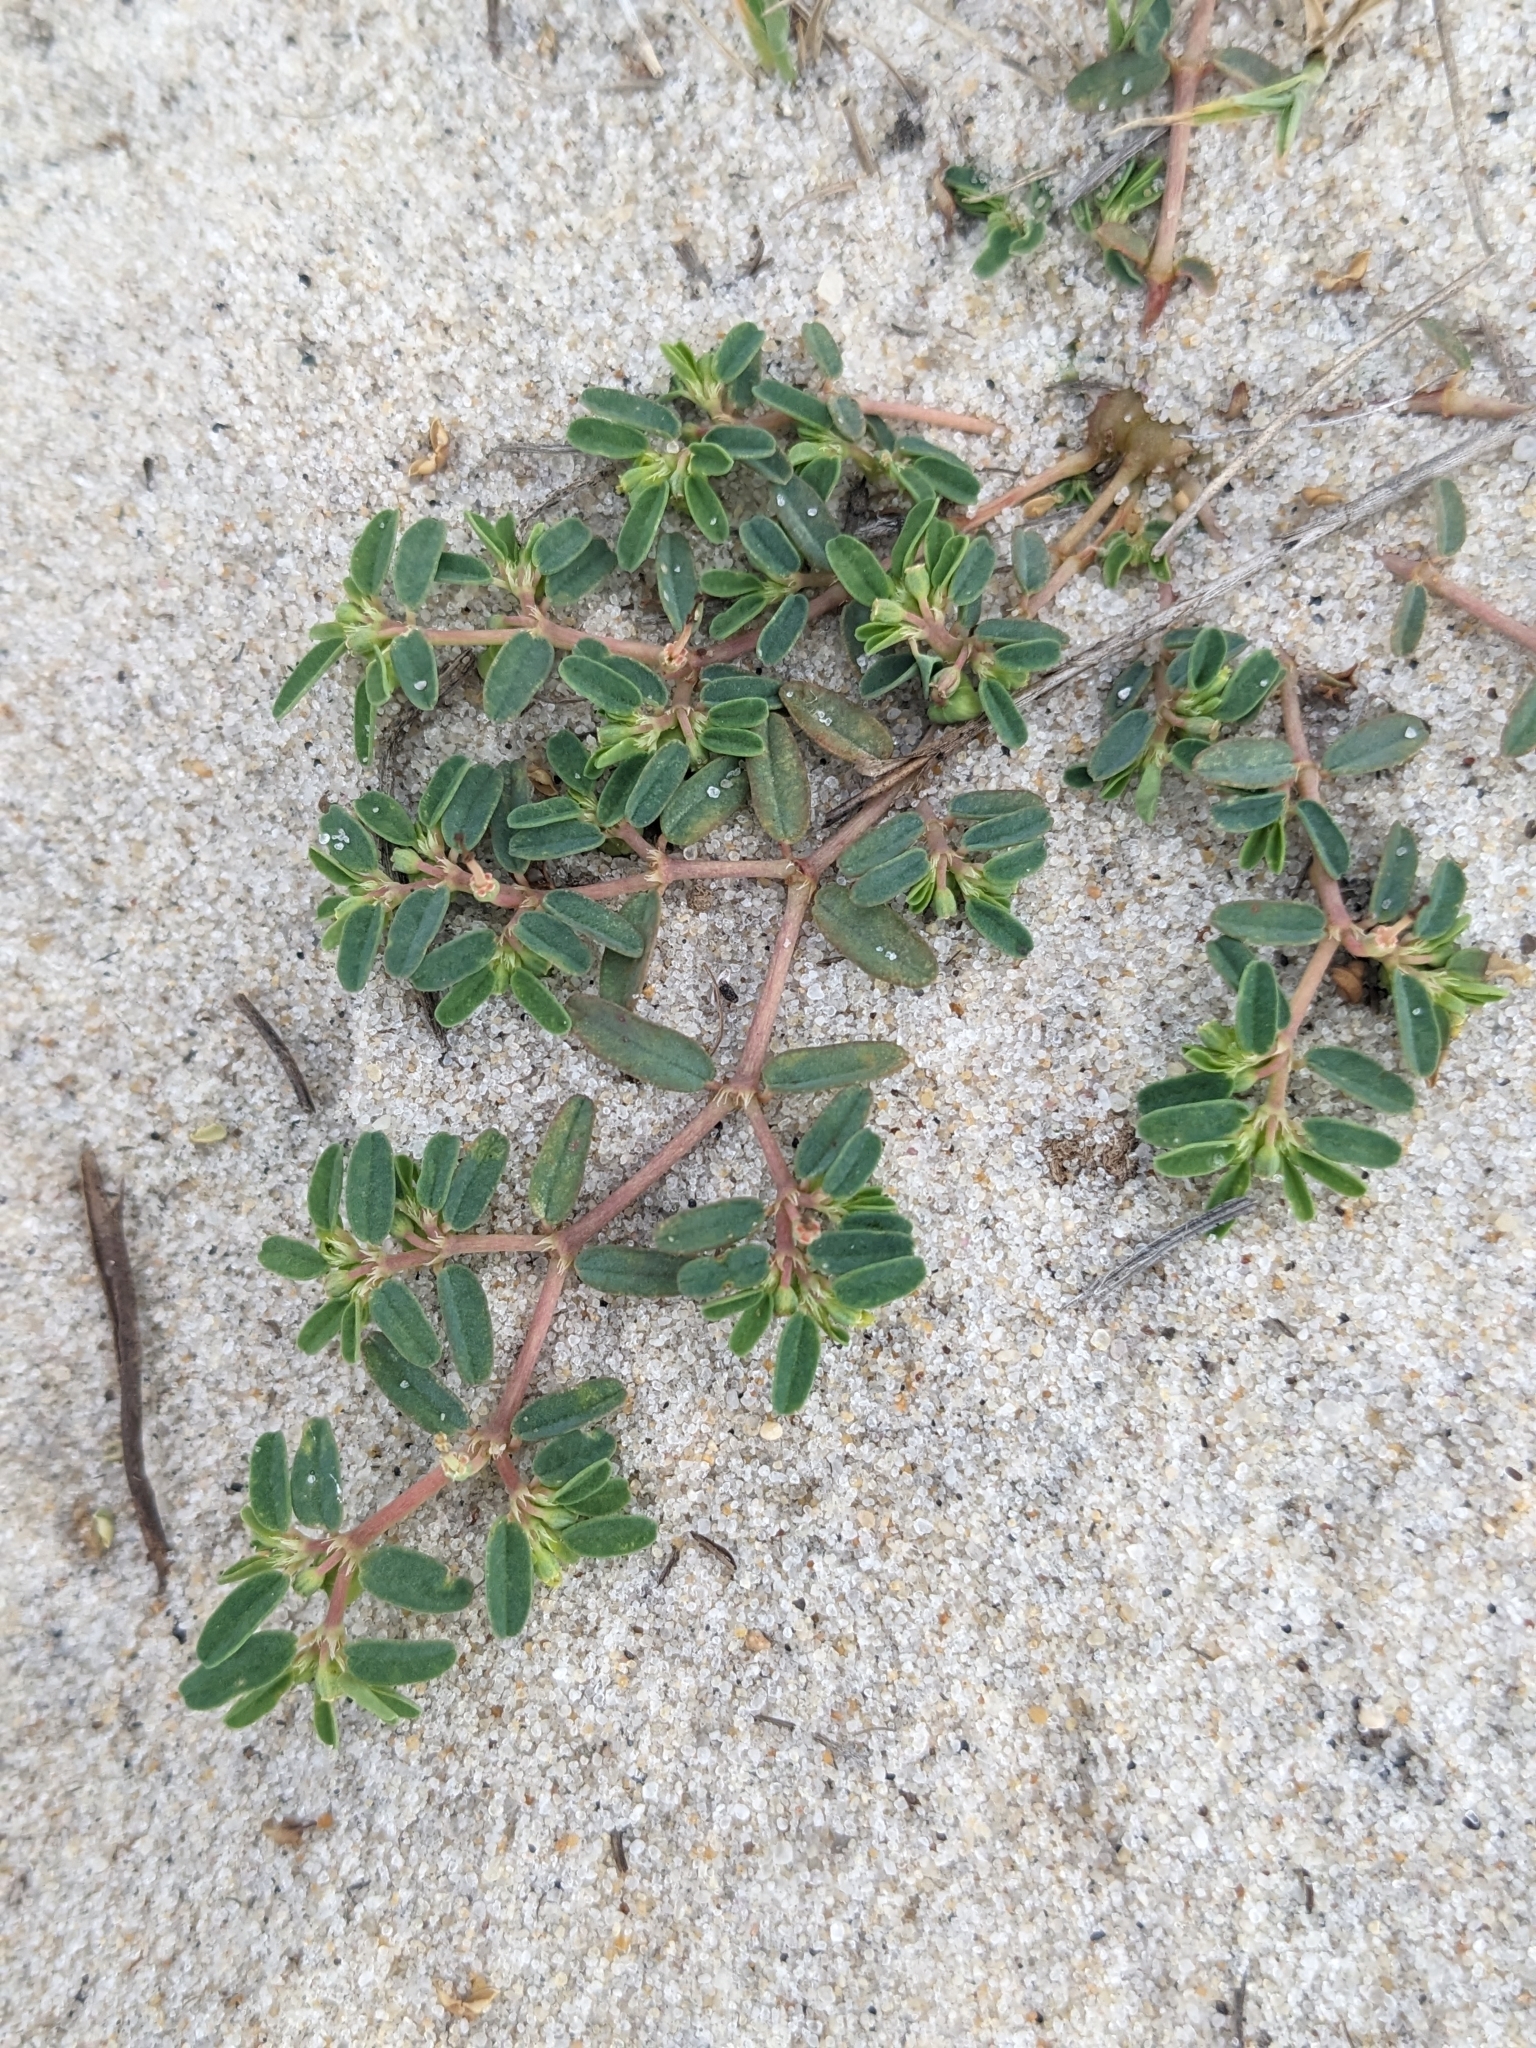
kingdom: Plantae
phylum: Tracheophyta
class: Magnoliopsida
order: Malpighiales
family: Euphorbiaceae
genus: Euphorbia
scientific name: Euphorbia bombensis
